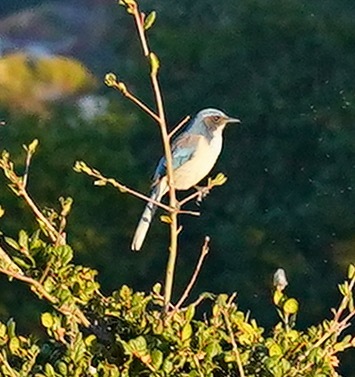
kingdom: Animalia
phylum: Chordata
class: Aves
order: Passeriformes
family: Corvidae
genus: Aphelocoma
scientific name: Aphelocoma californica
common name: California scrub-jay
